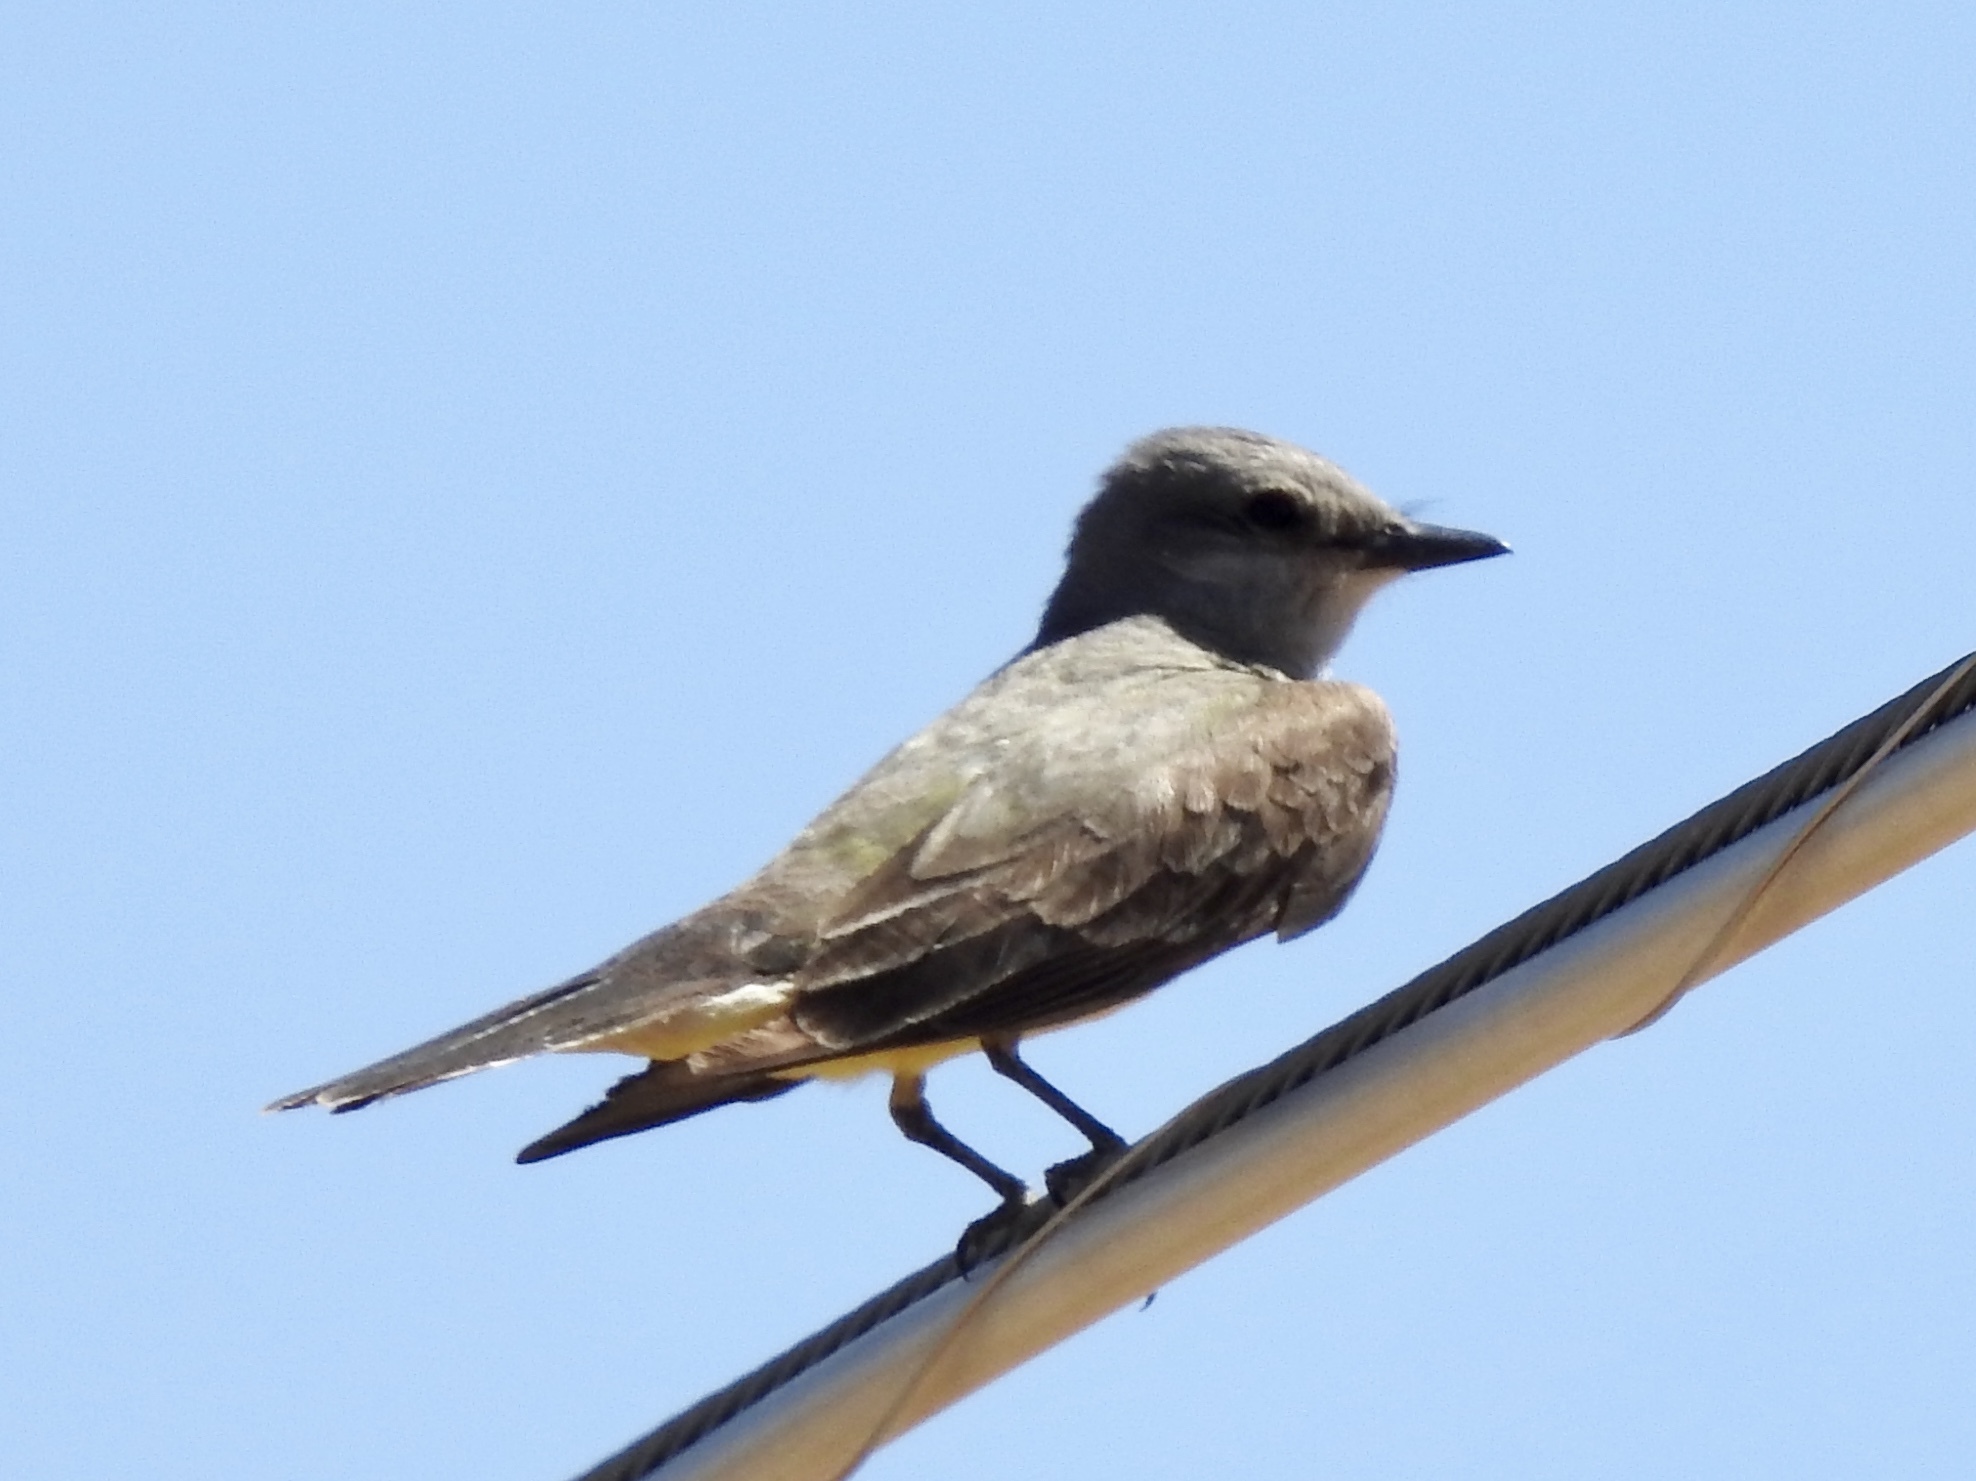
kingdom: Animalia
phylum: Chordata
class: Aves
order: Passeriformes
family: Tyrannidae
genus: Tyrannus
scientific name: Tyrannus verticalis
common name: Western kingbird
